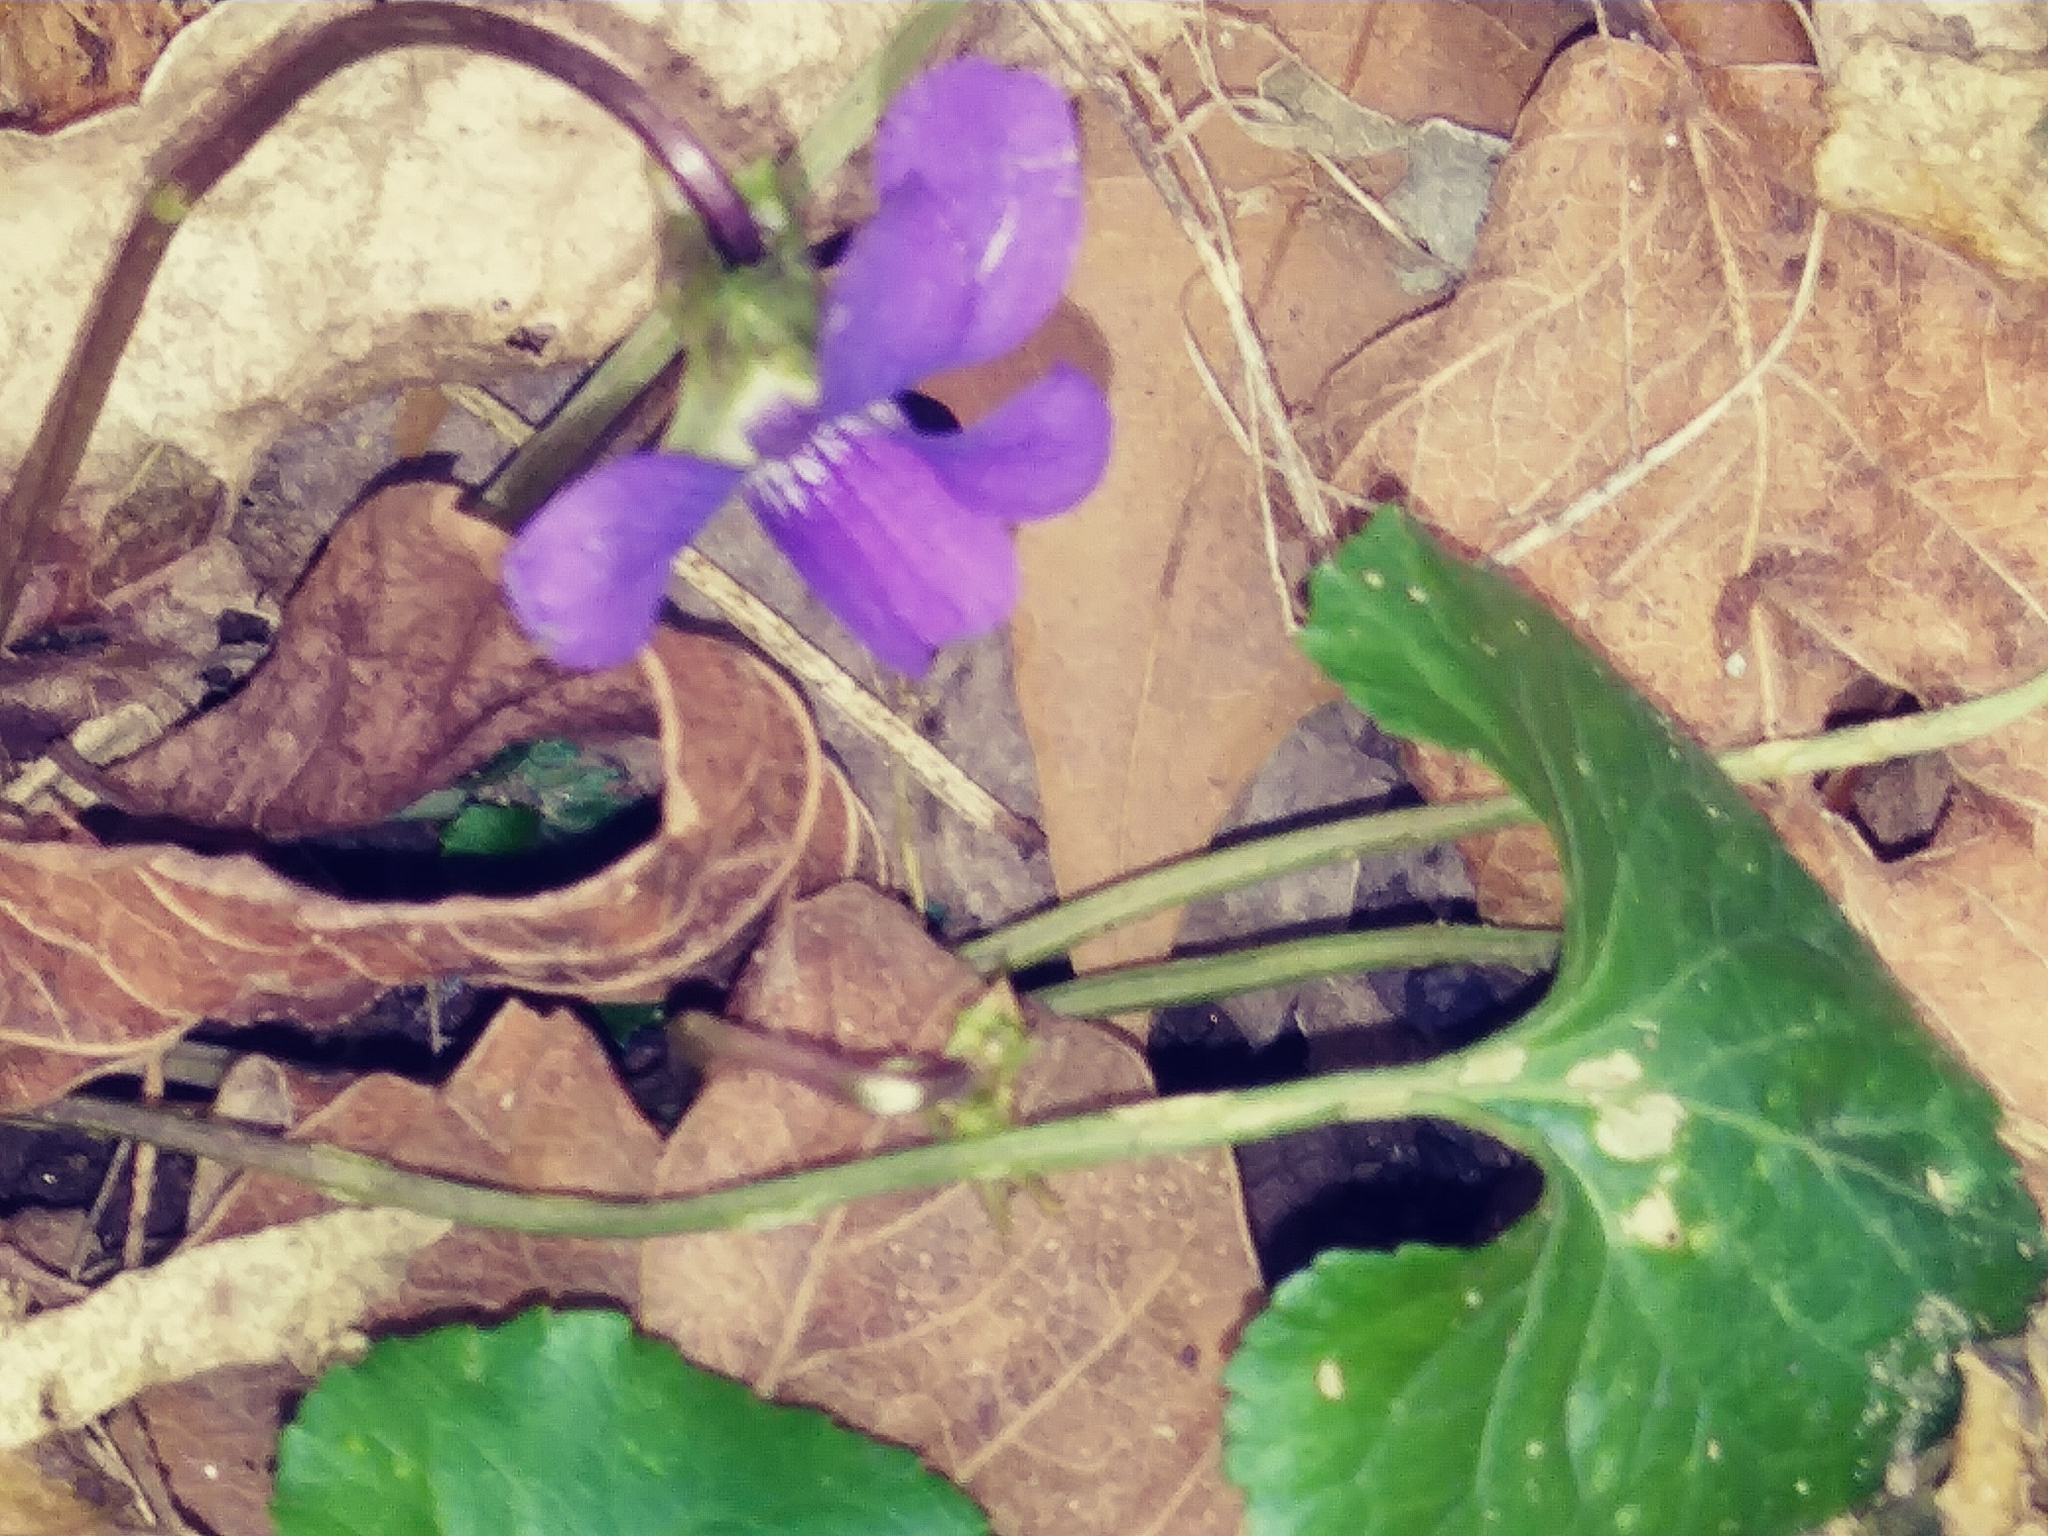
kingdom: Plantae
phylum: Tracheophyta
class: Magnoliopsida
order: Malpighiales
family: Violaceae
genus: Viola
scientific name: Viola sororia
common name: Dooryard violet
